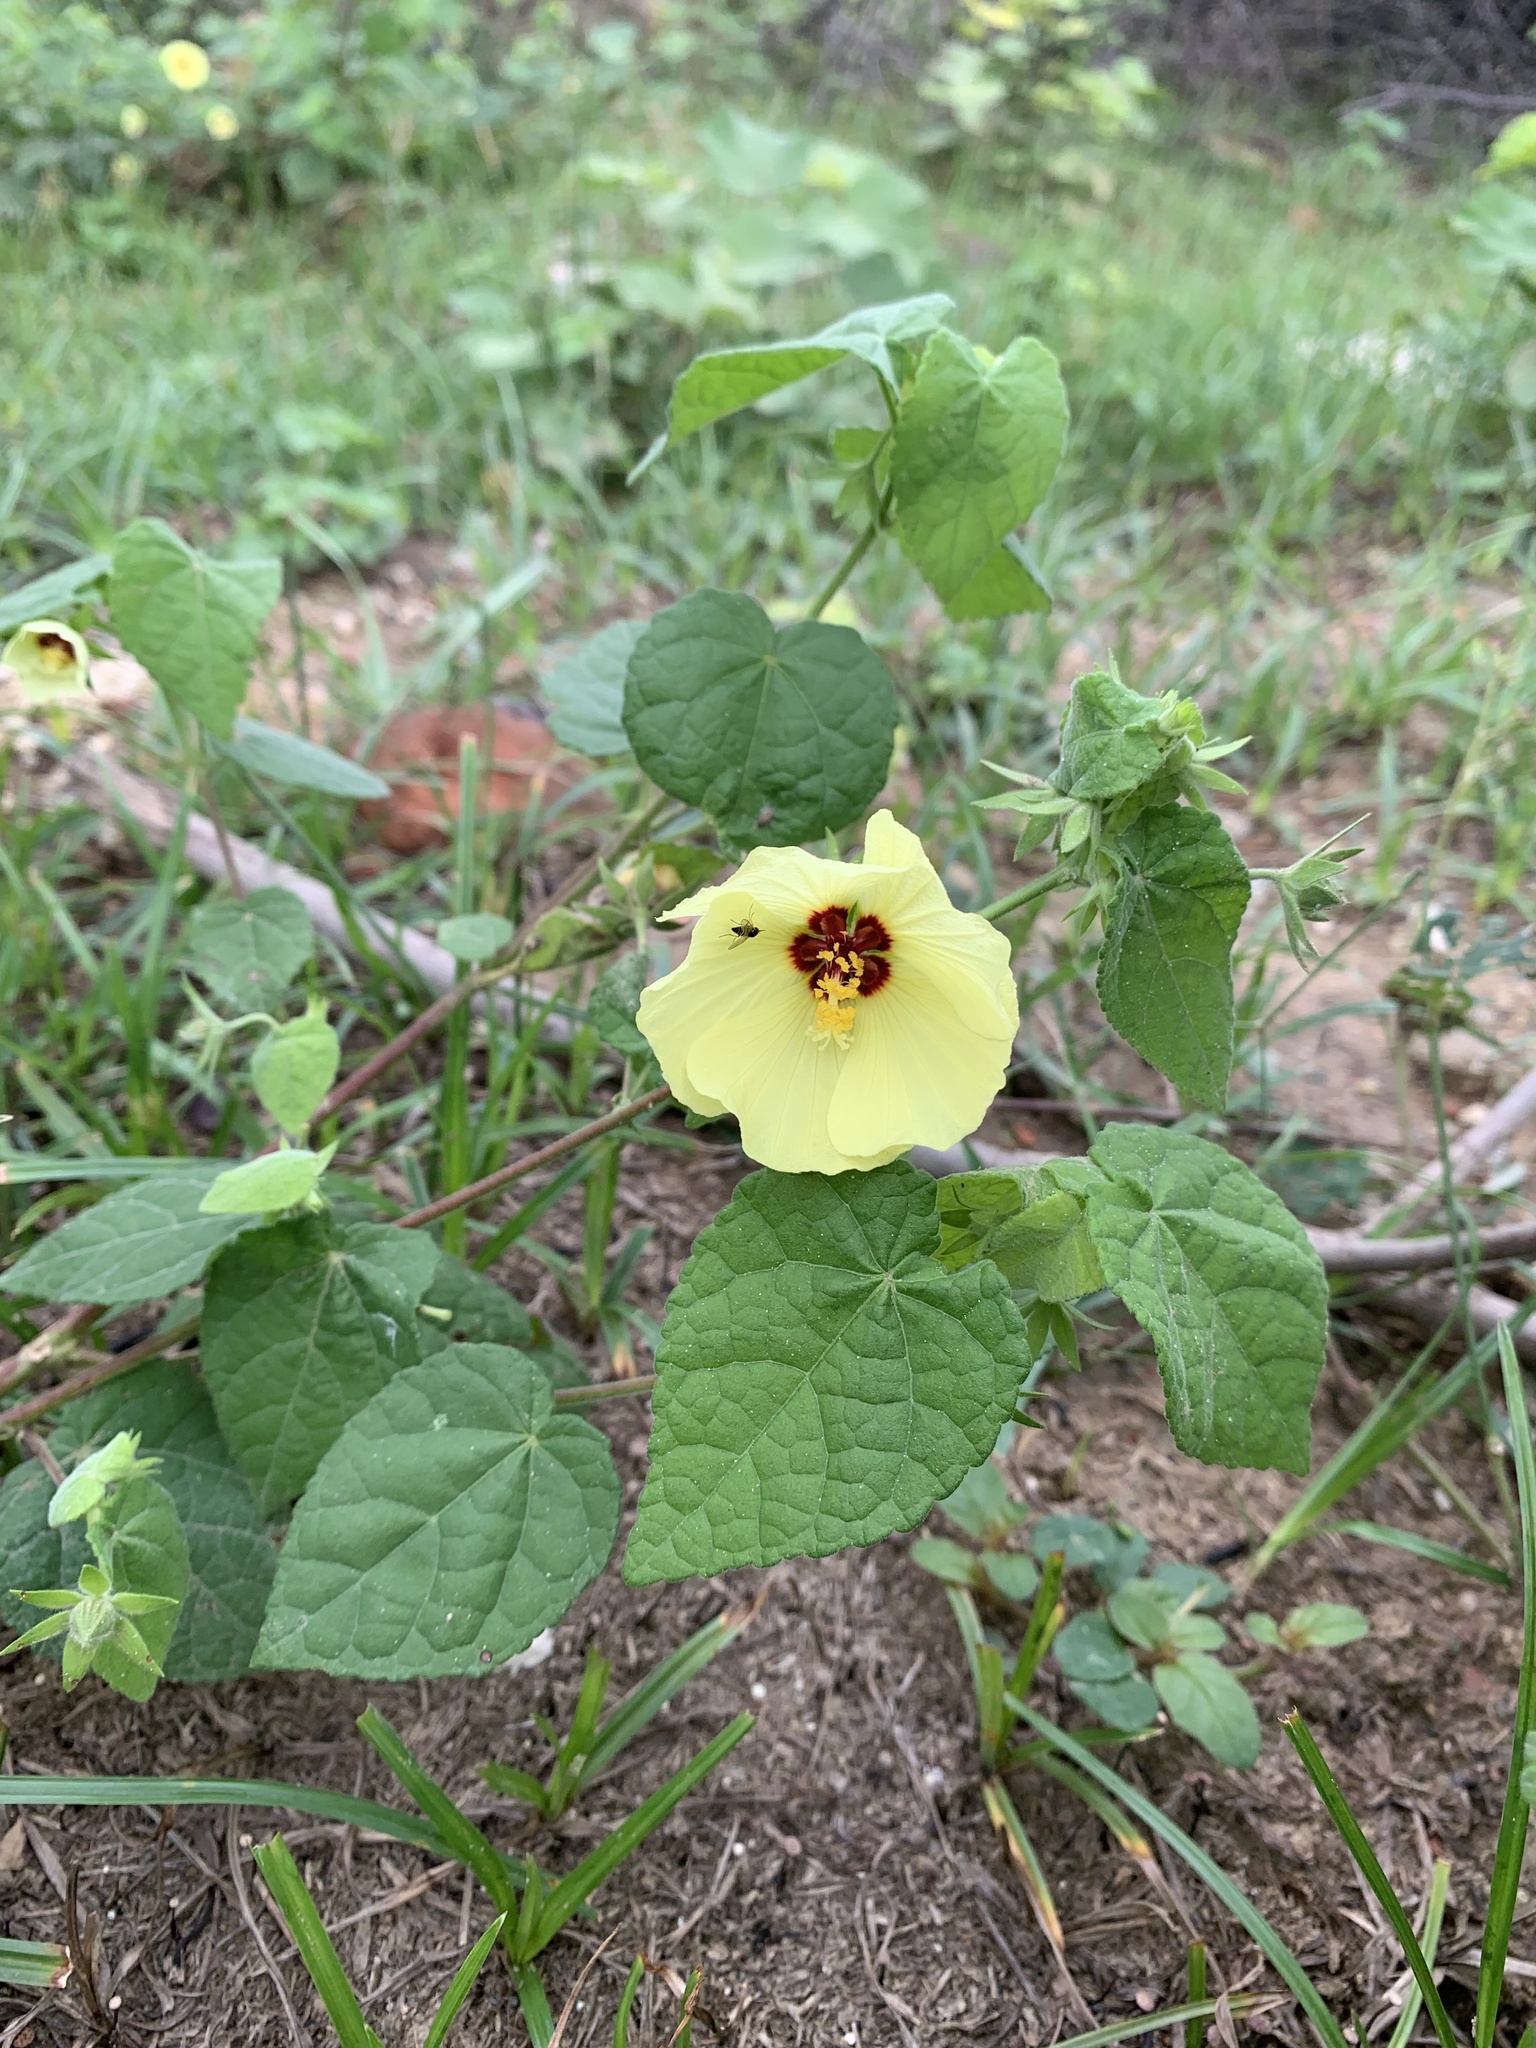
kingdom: Plantae
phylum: Tracheophyta
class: Magnoliopsida
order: Malvales
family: Malvaceae
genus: Pavonia
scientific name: Pavonia cancellata
